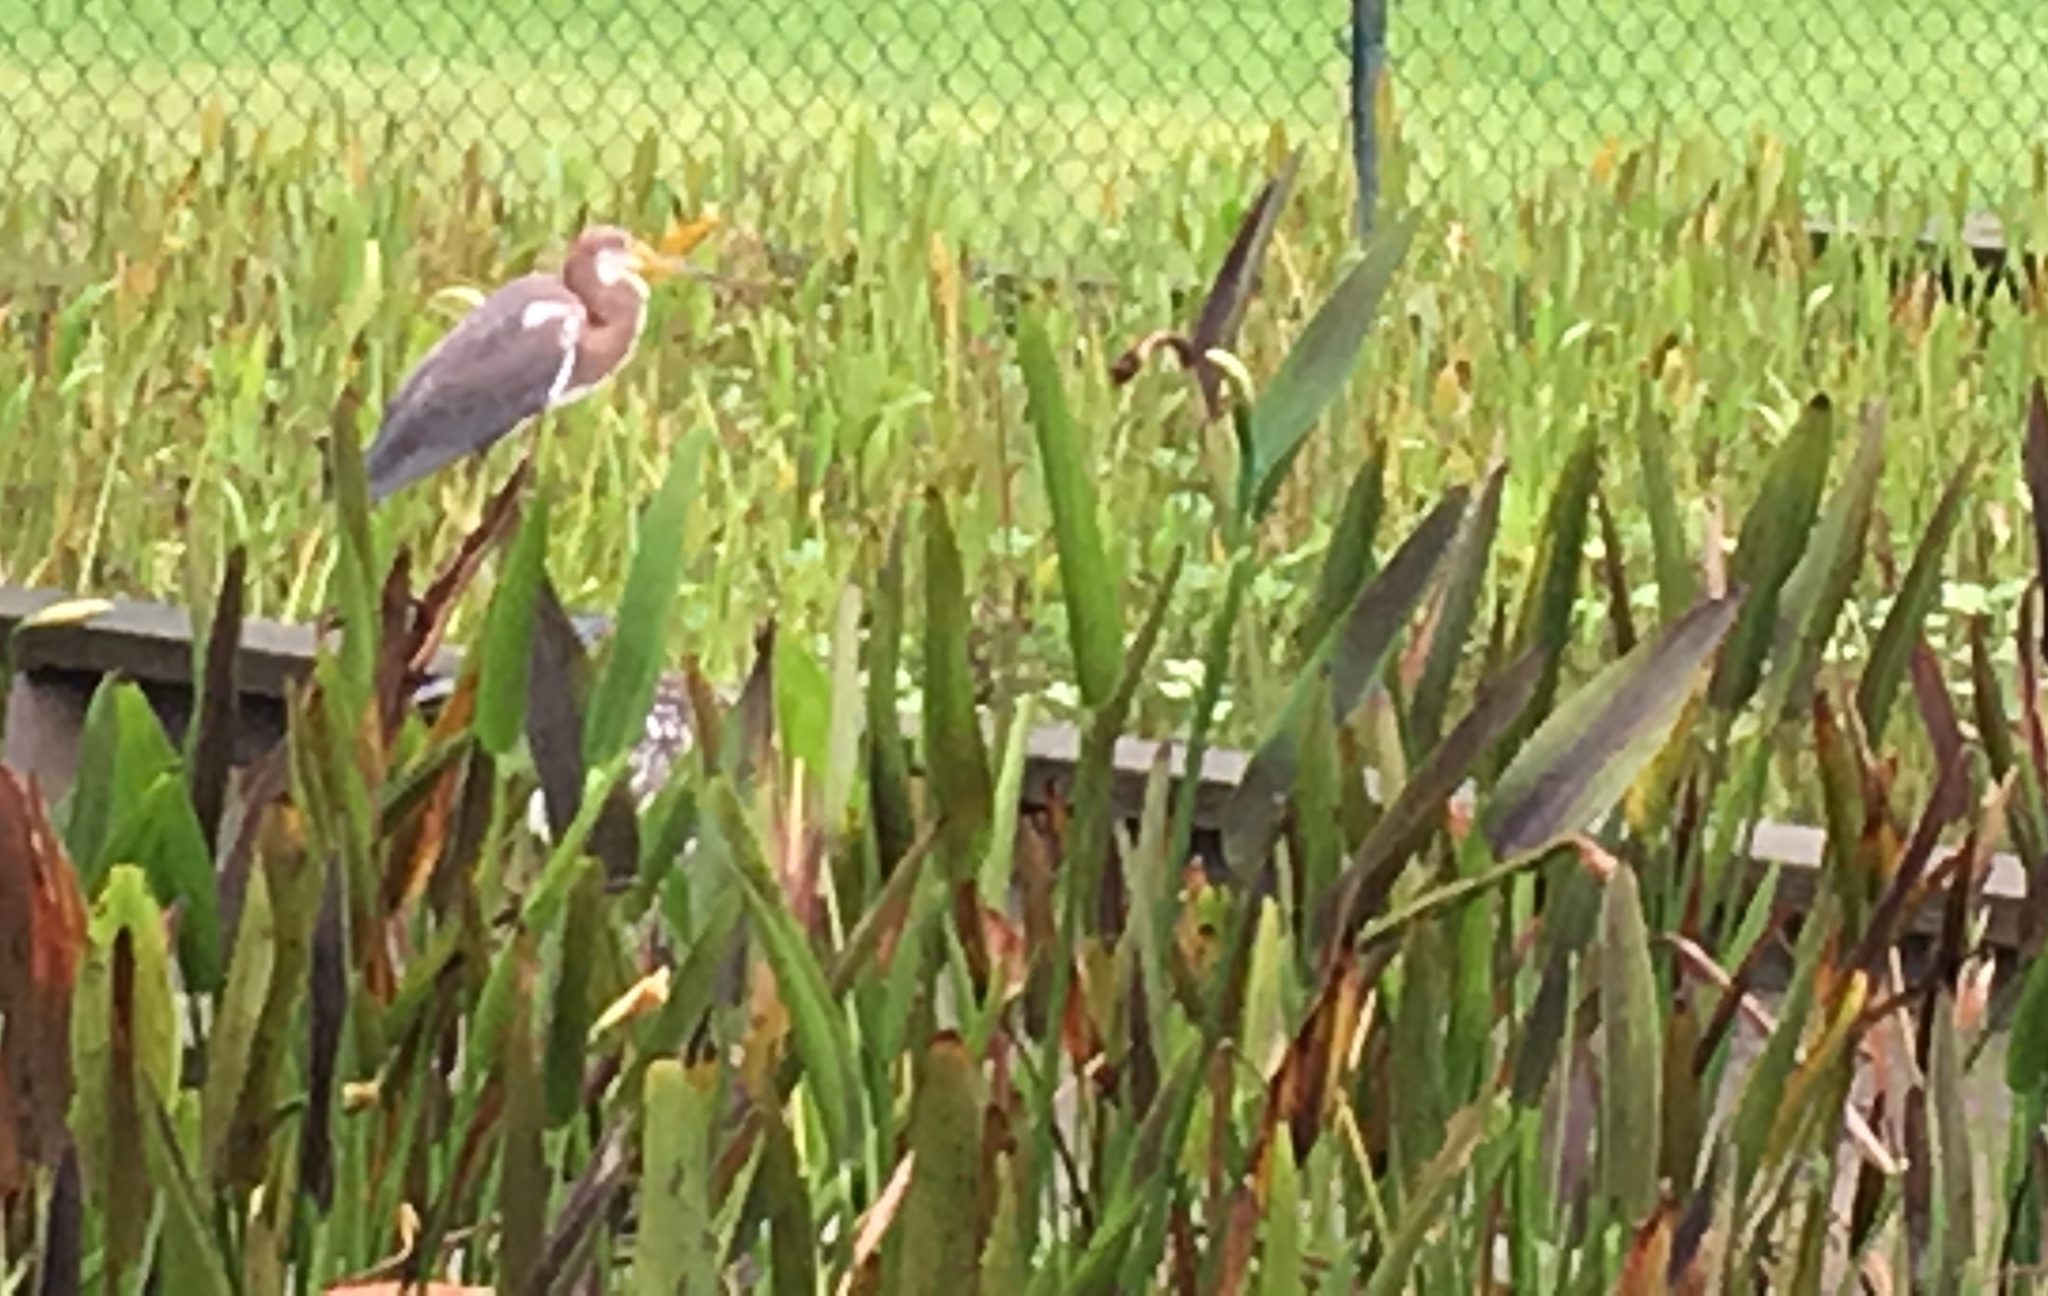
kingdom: Animalia
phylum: Chordata
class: Aves
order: Pelecaniformes
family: Ardeidae
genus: Egretta
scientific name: Egretta tricolor
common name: Tricolored heron
